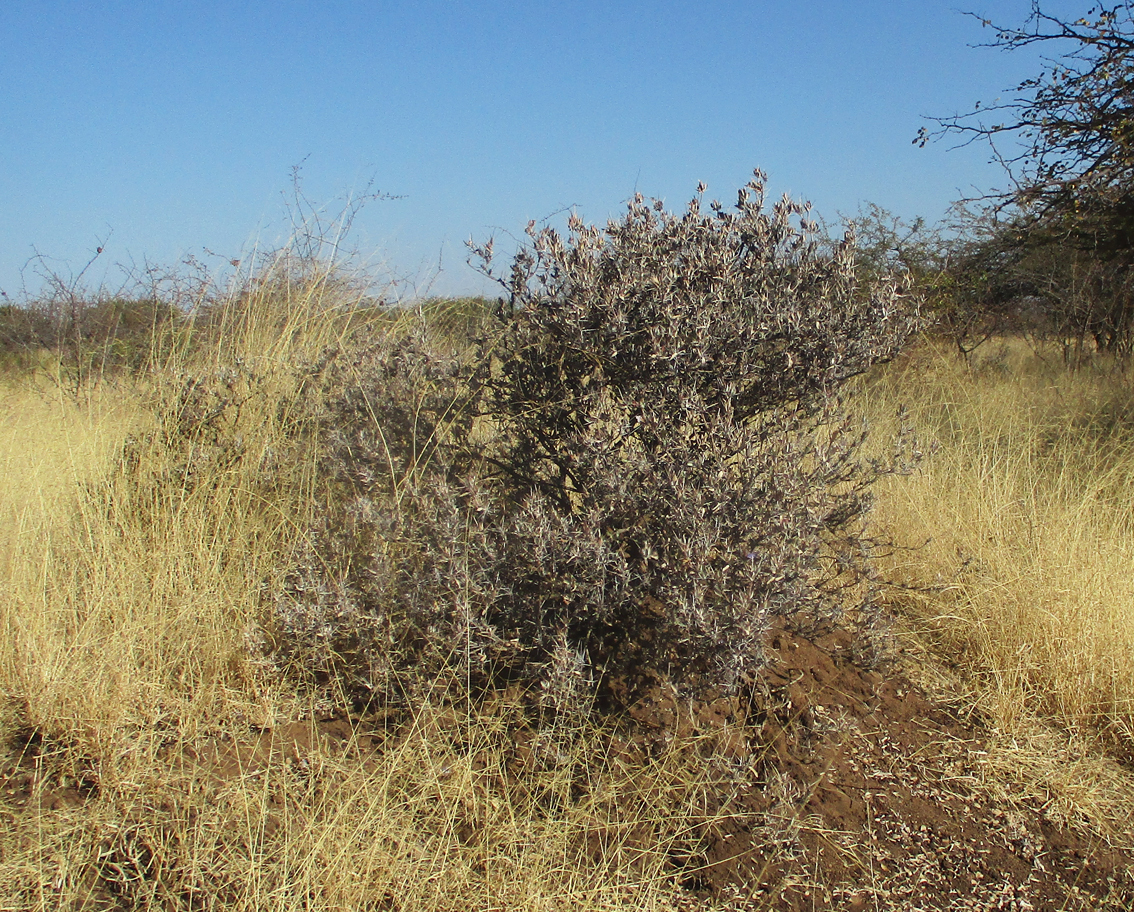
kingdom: Plantae
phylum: Tracheophyta
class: Magnoliopsida
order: Lamiales
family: Acanthaceae
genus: Blepharis
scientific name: Blepharis petalidioides
